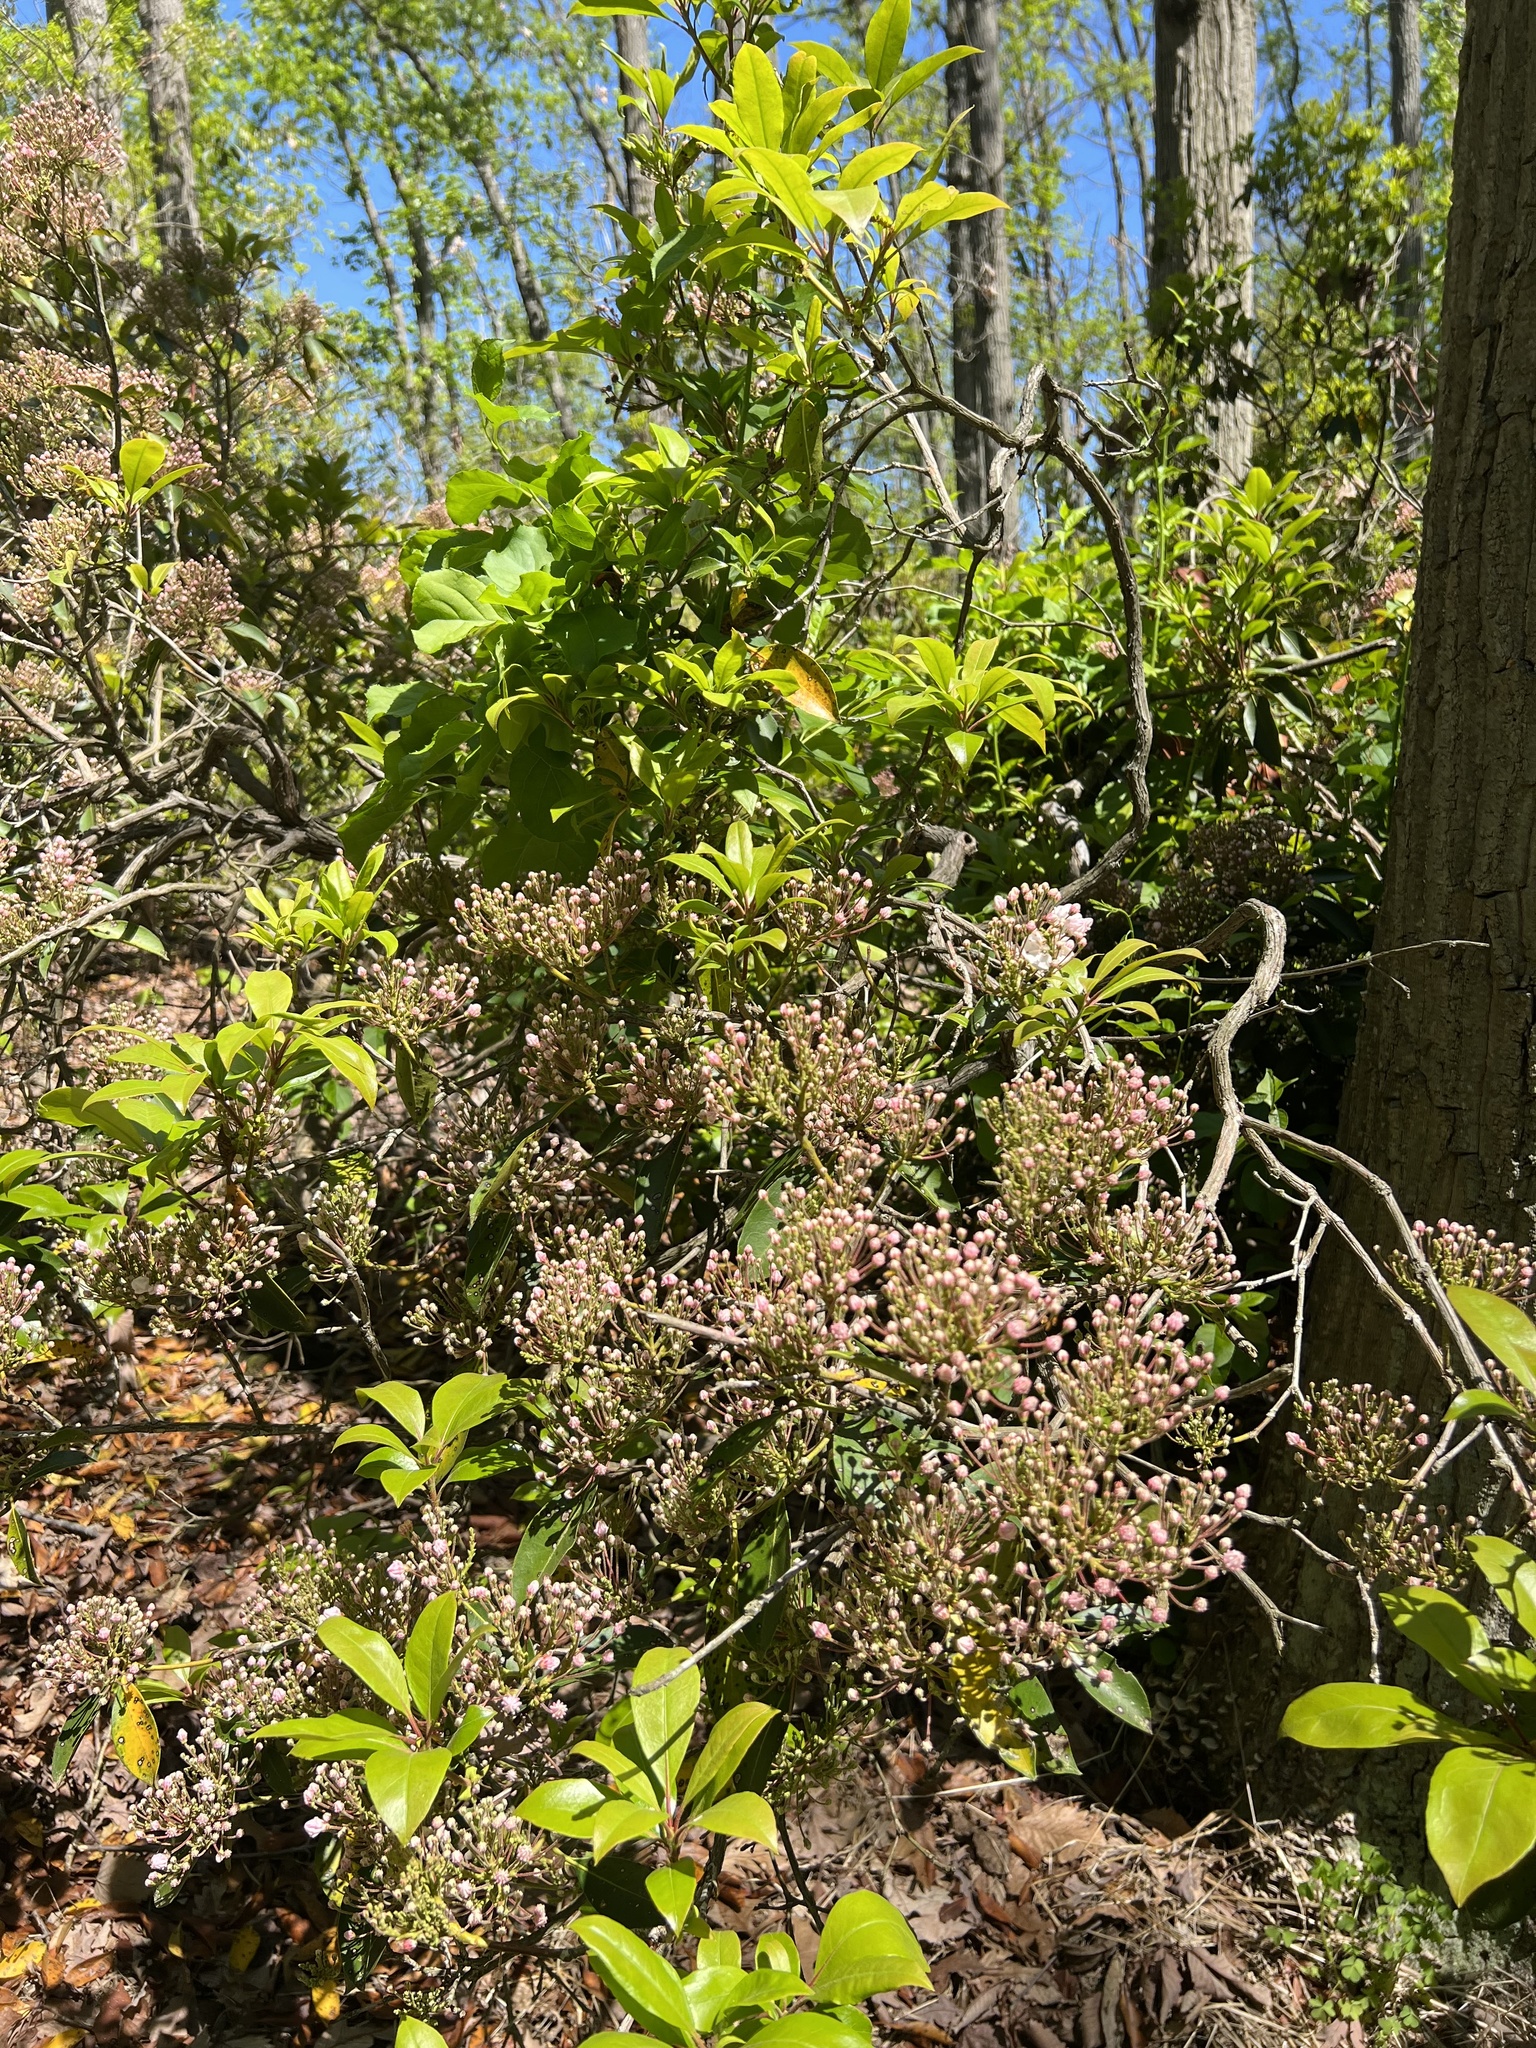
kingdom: Plantae
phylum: Tracheophyta
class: Magnoliopsida
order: Ericales
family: Ericaceae
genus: Kalmia
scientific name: Kalmia latifolia
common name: Mountain-laurel
